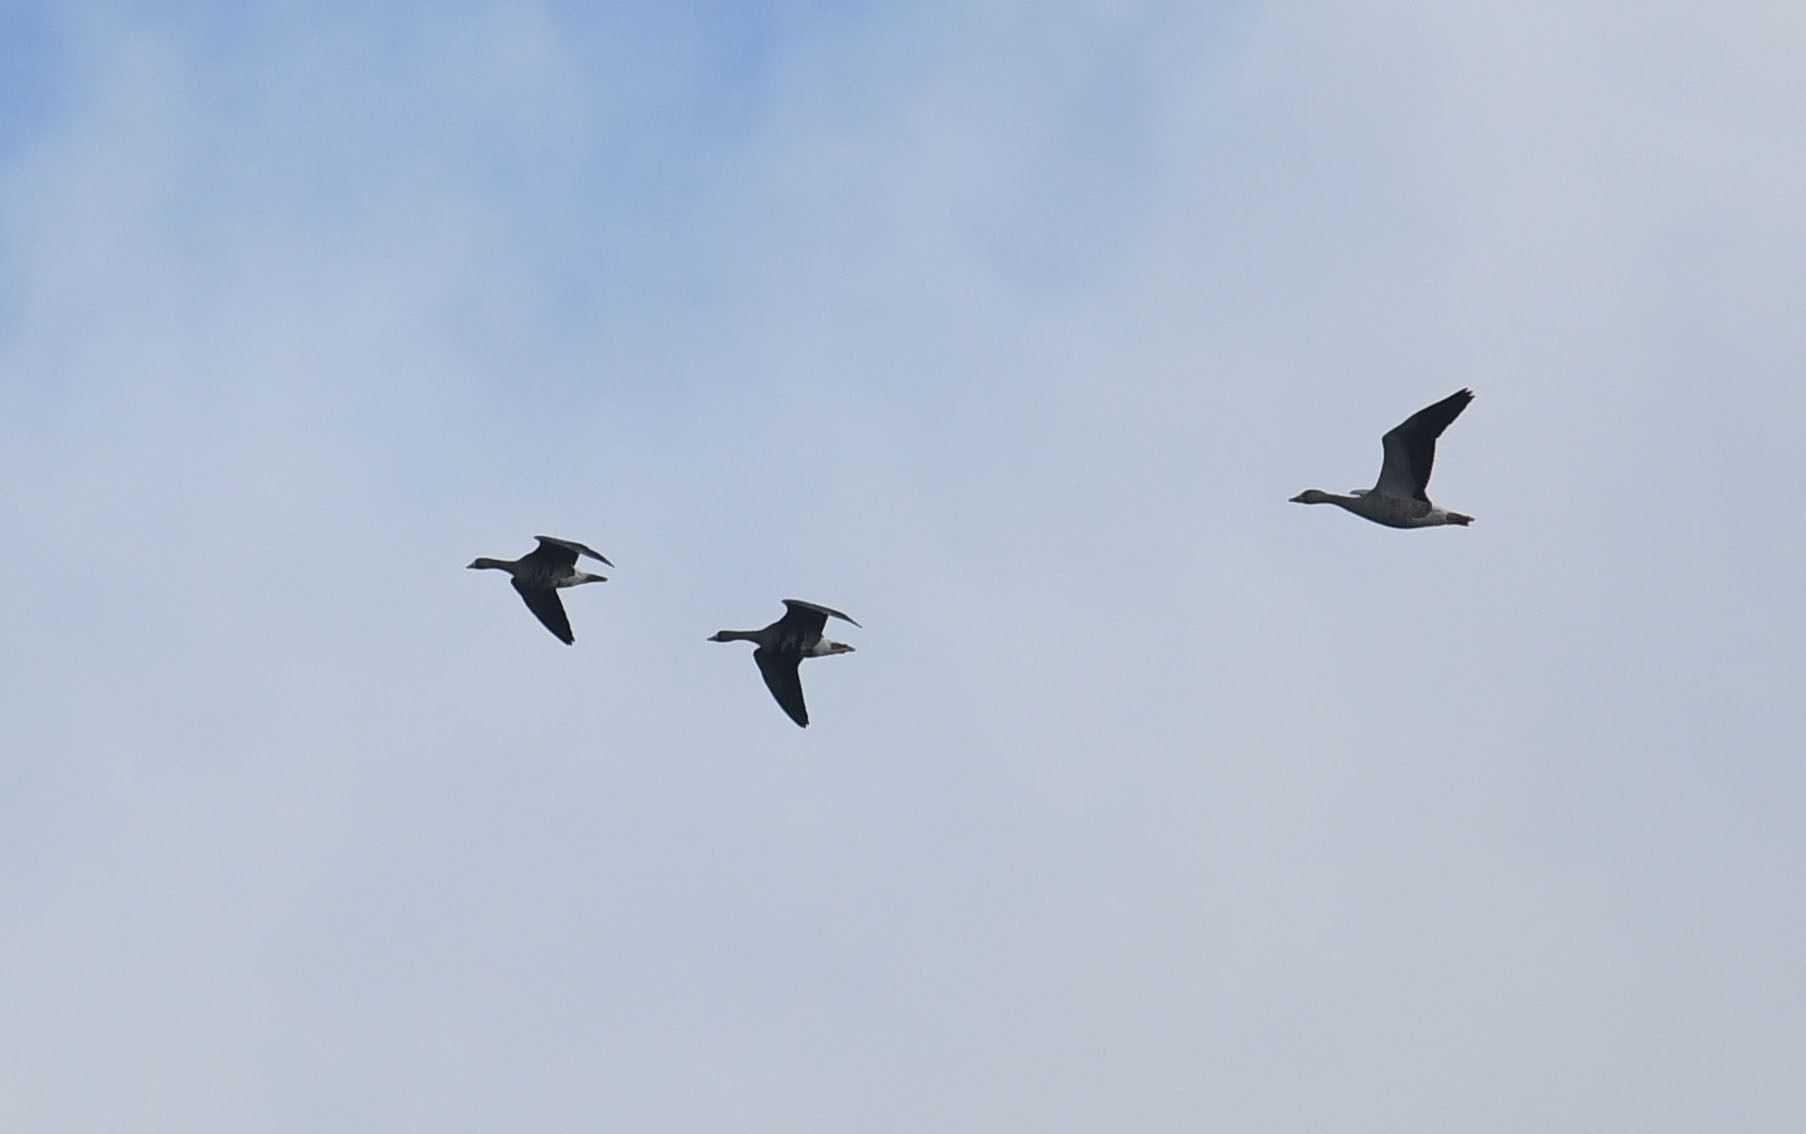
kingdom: Animalia
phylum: Chordata
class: Aves
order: Anseriformes
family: Anatidae
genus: Anser
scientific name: Anser albifrons
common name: Greater white-fronted goose
